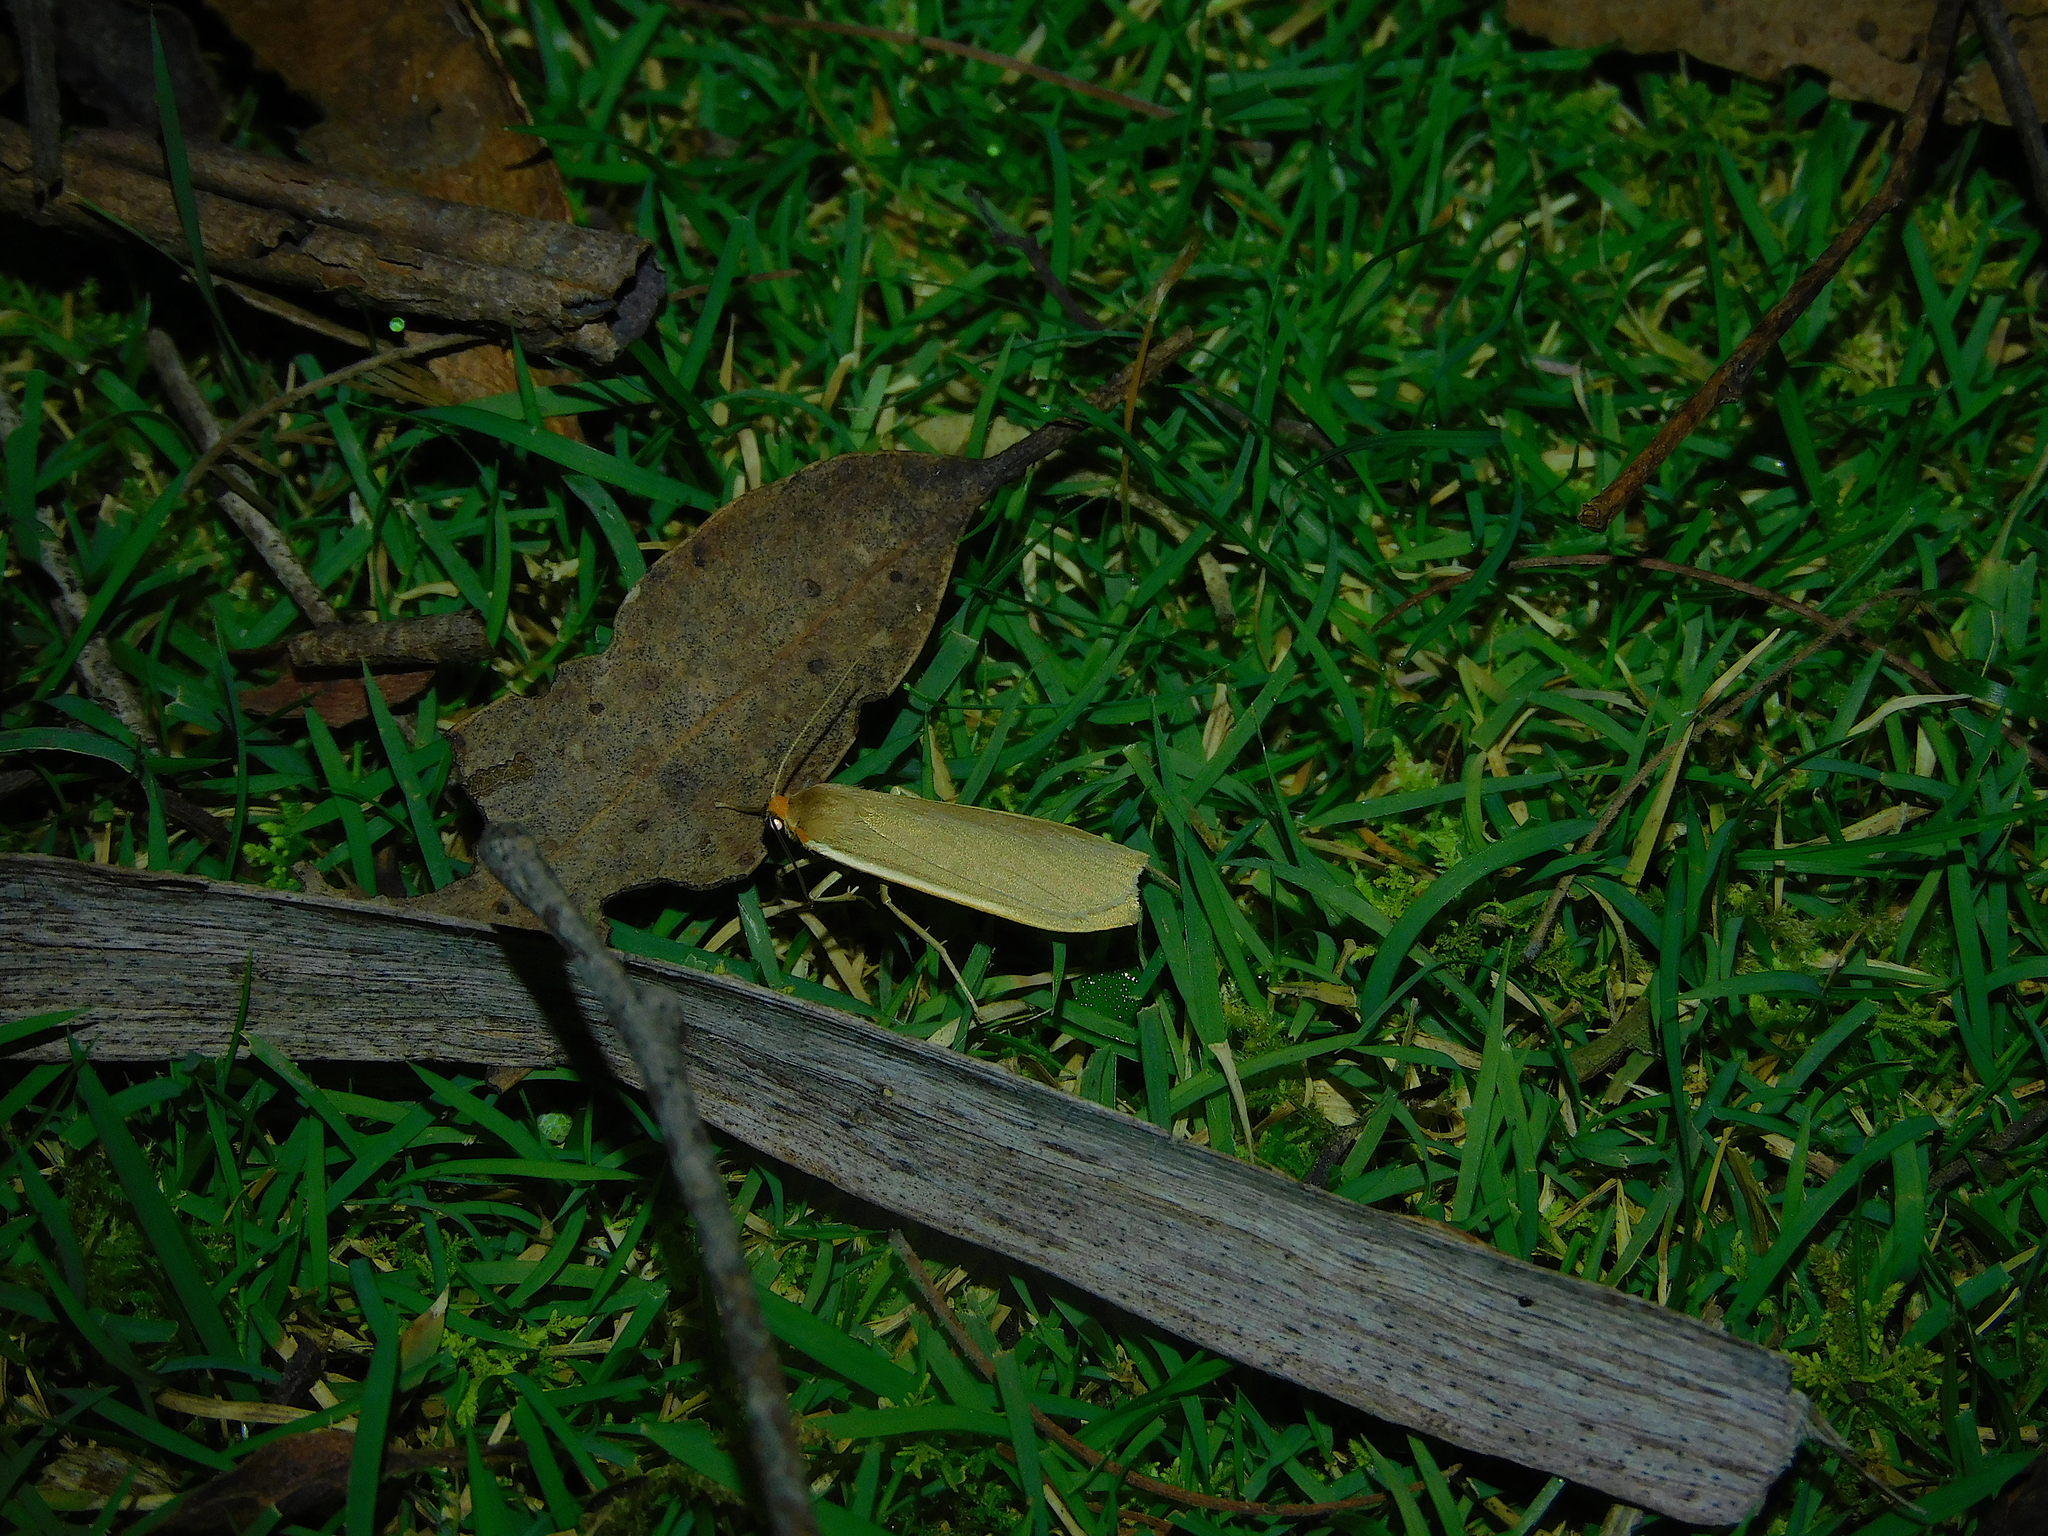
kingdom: Animalia
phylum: Arthropoda
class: Insecta
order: Lepidoptera
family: Erebidae
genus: Palaeosia
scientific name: Palaeosia bicosta
